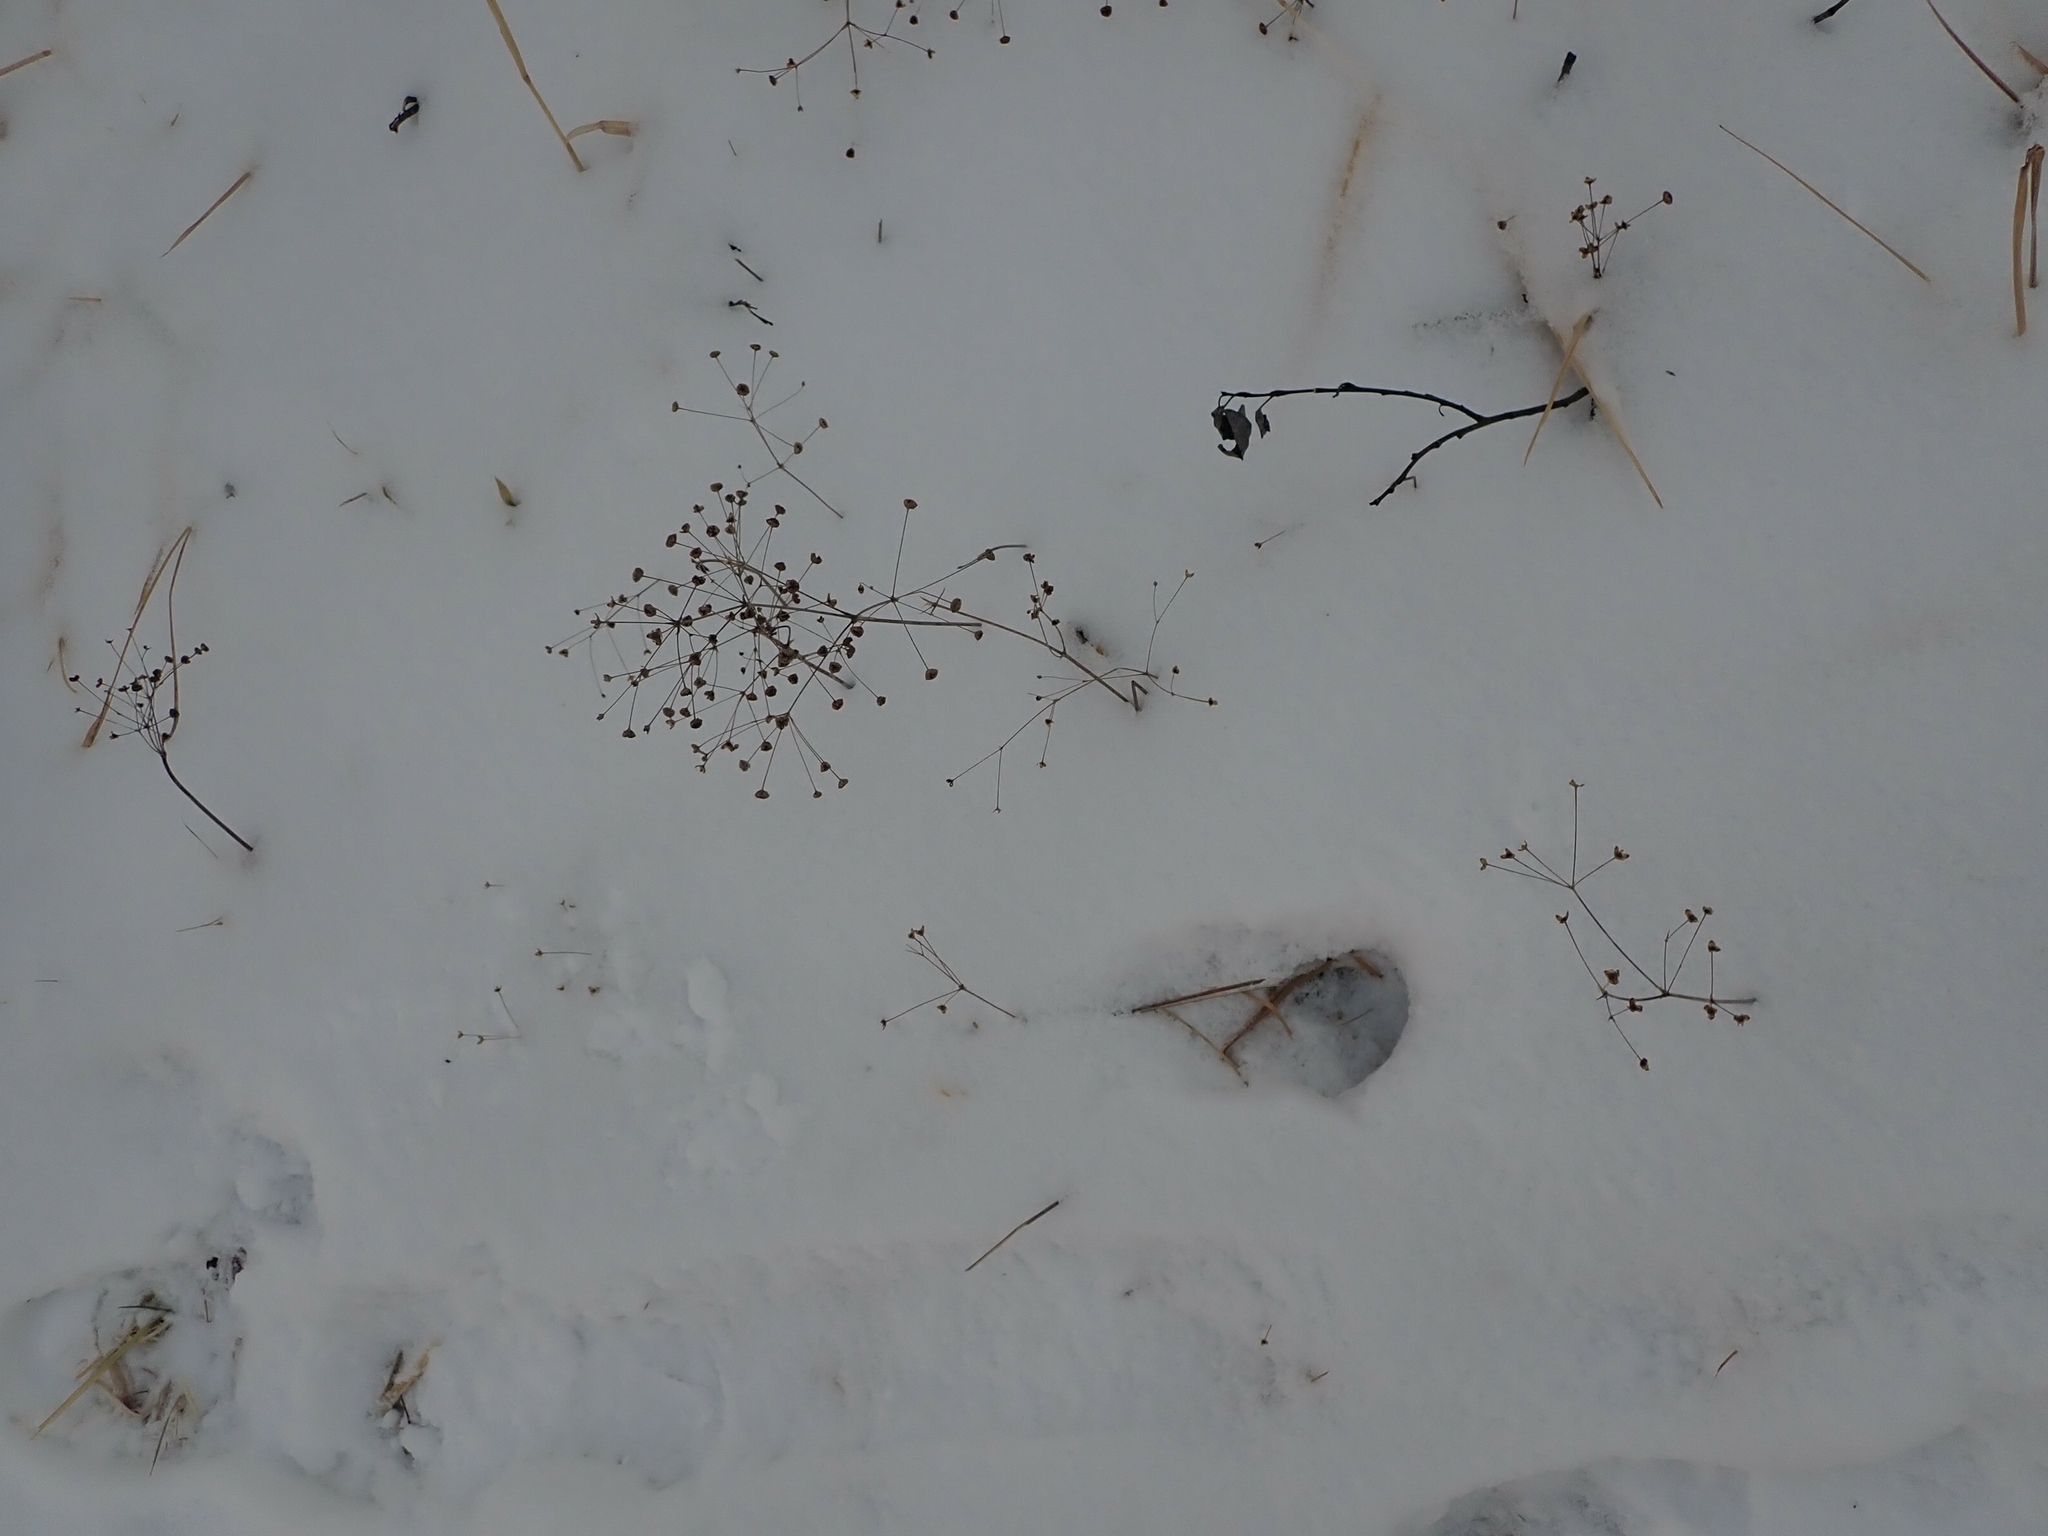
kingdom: Plantae
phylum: Tracheophyta
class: Liliopsida
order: Alismatales
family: Alismataceae
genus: Alisma
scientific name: Alisma triviale
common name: Northern water-plantain
